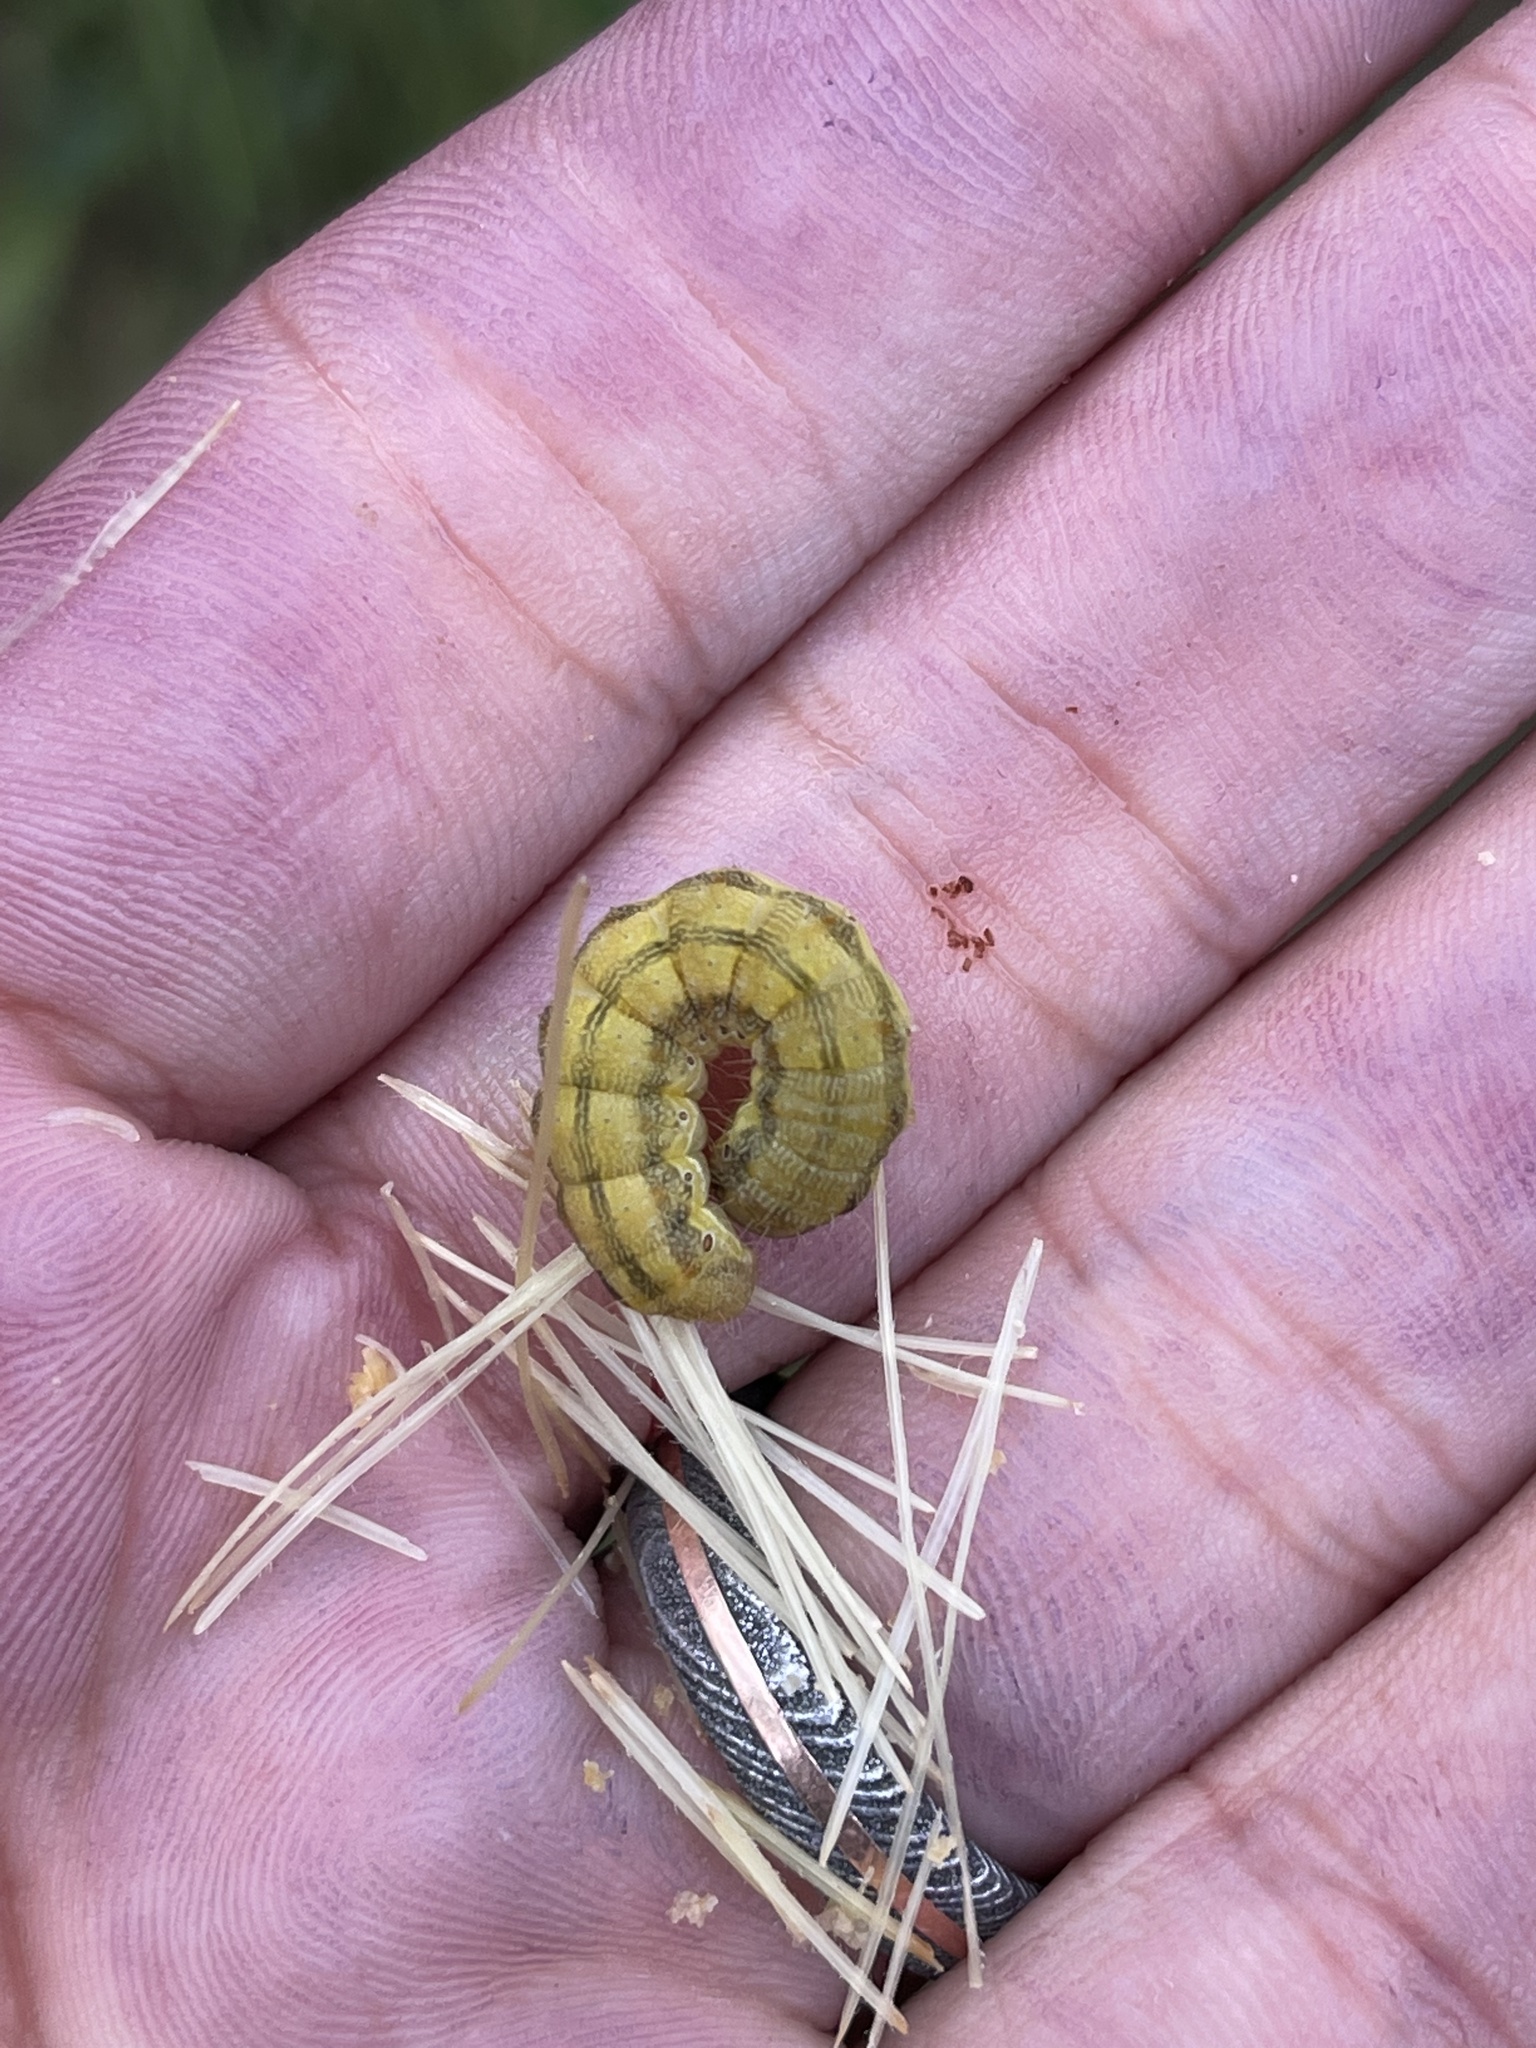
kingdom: Animalia
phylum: Arthropoda
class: Insecta
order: Lepidoptera
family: Noctuidae
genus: Helicoverpa
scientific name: Helicoverpa zea
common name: Bollworm
